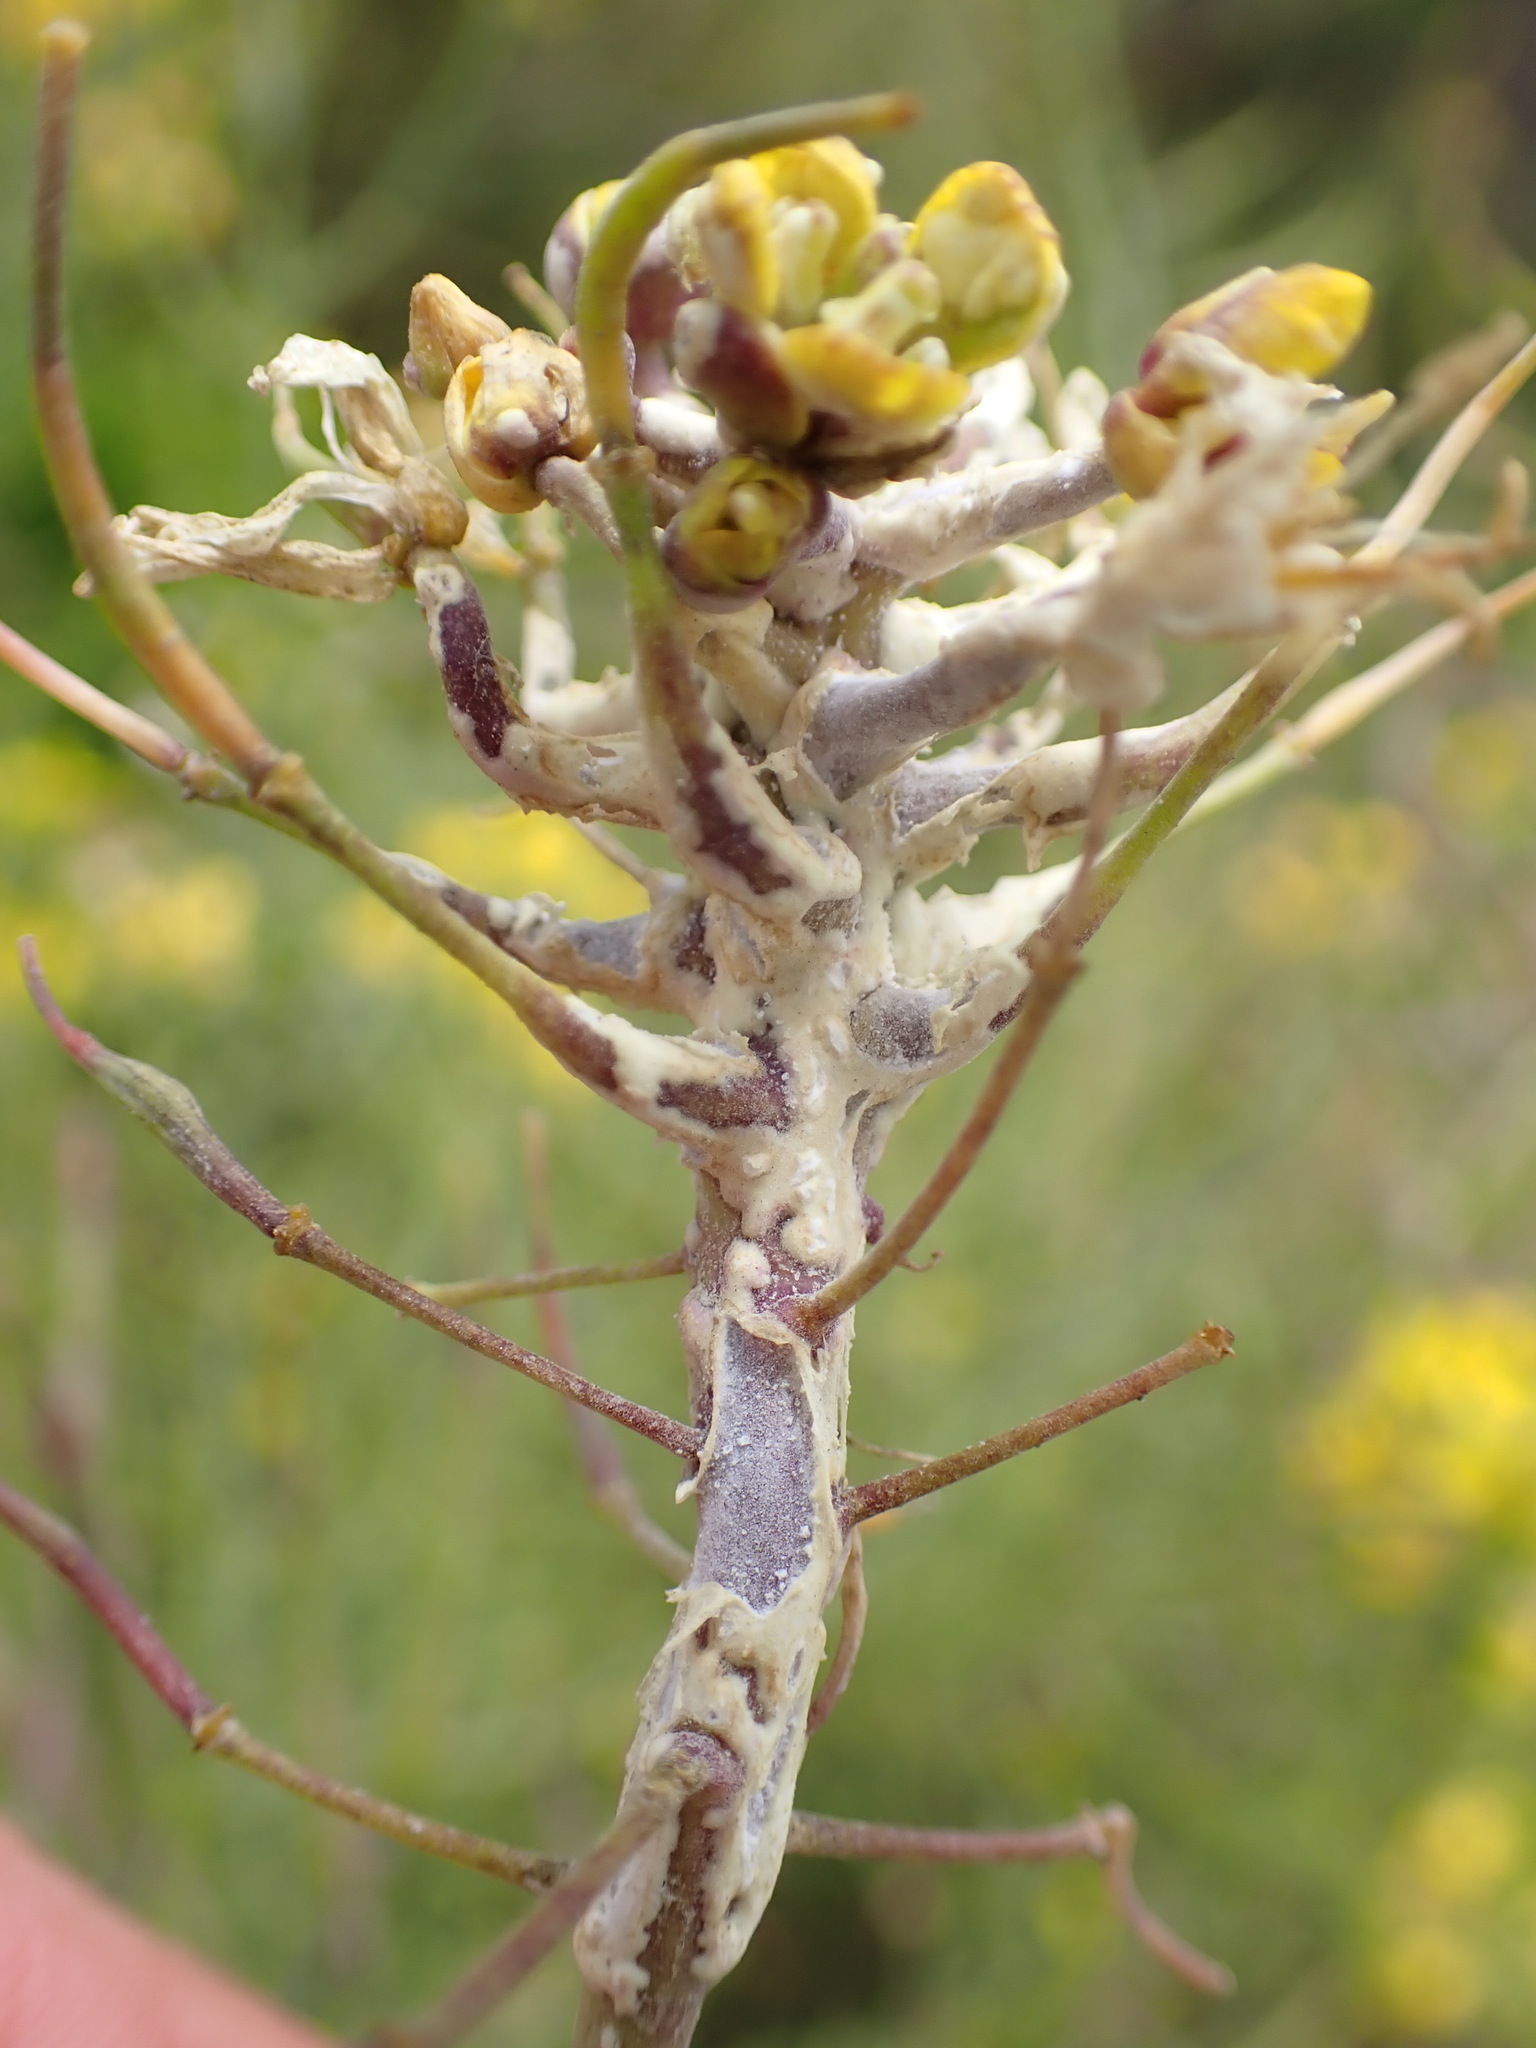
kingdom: Chromista
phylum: Oomycota
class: Peronosporea
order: Albuginales
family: Albuginaceae
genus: Albugo
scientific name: Albugo candida
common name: Crucifer white blister
